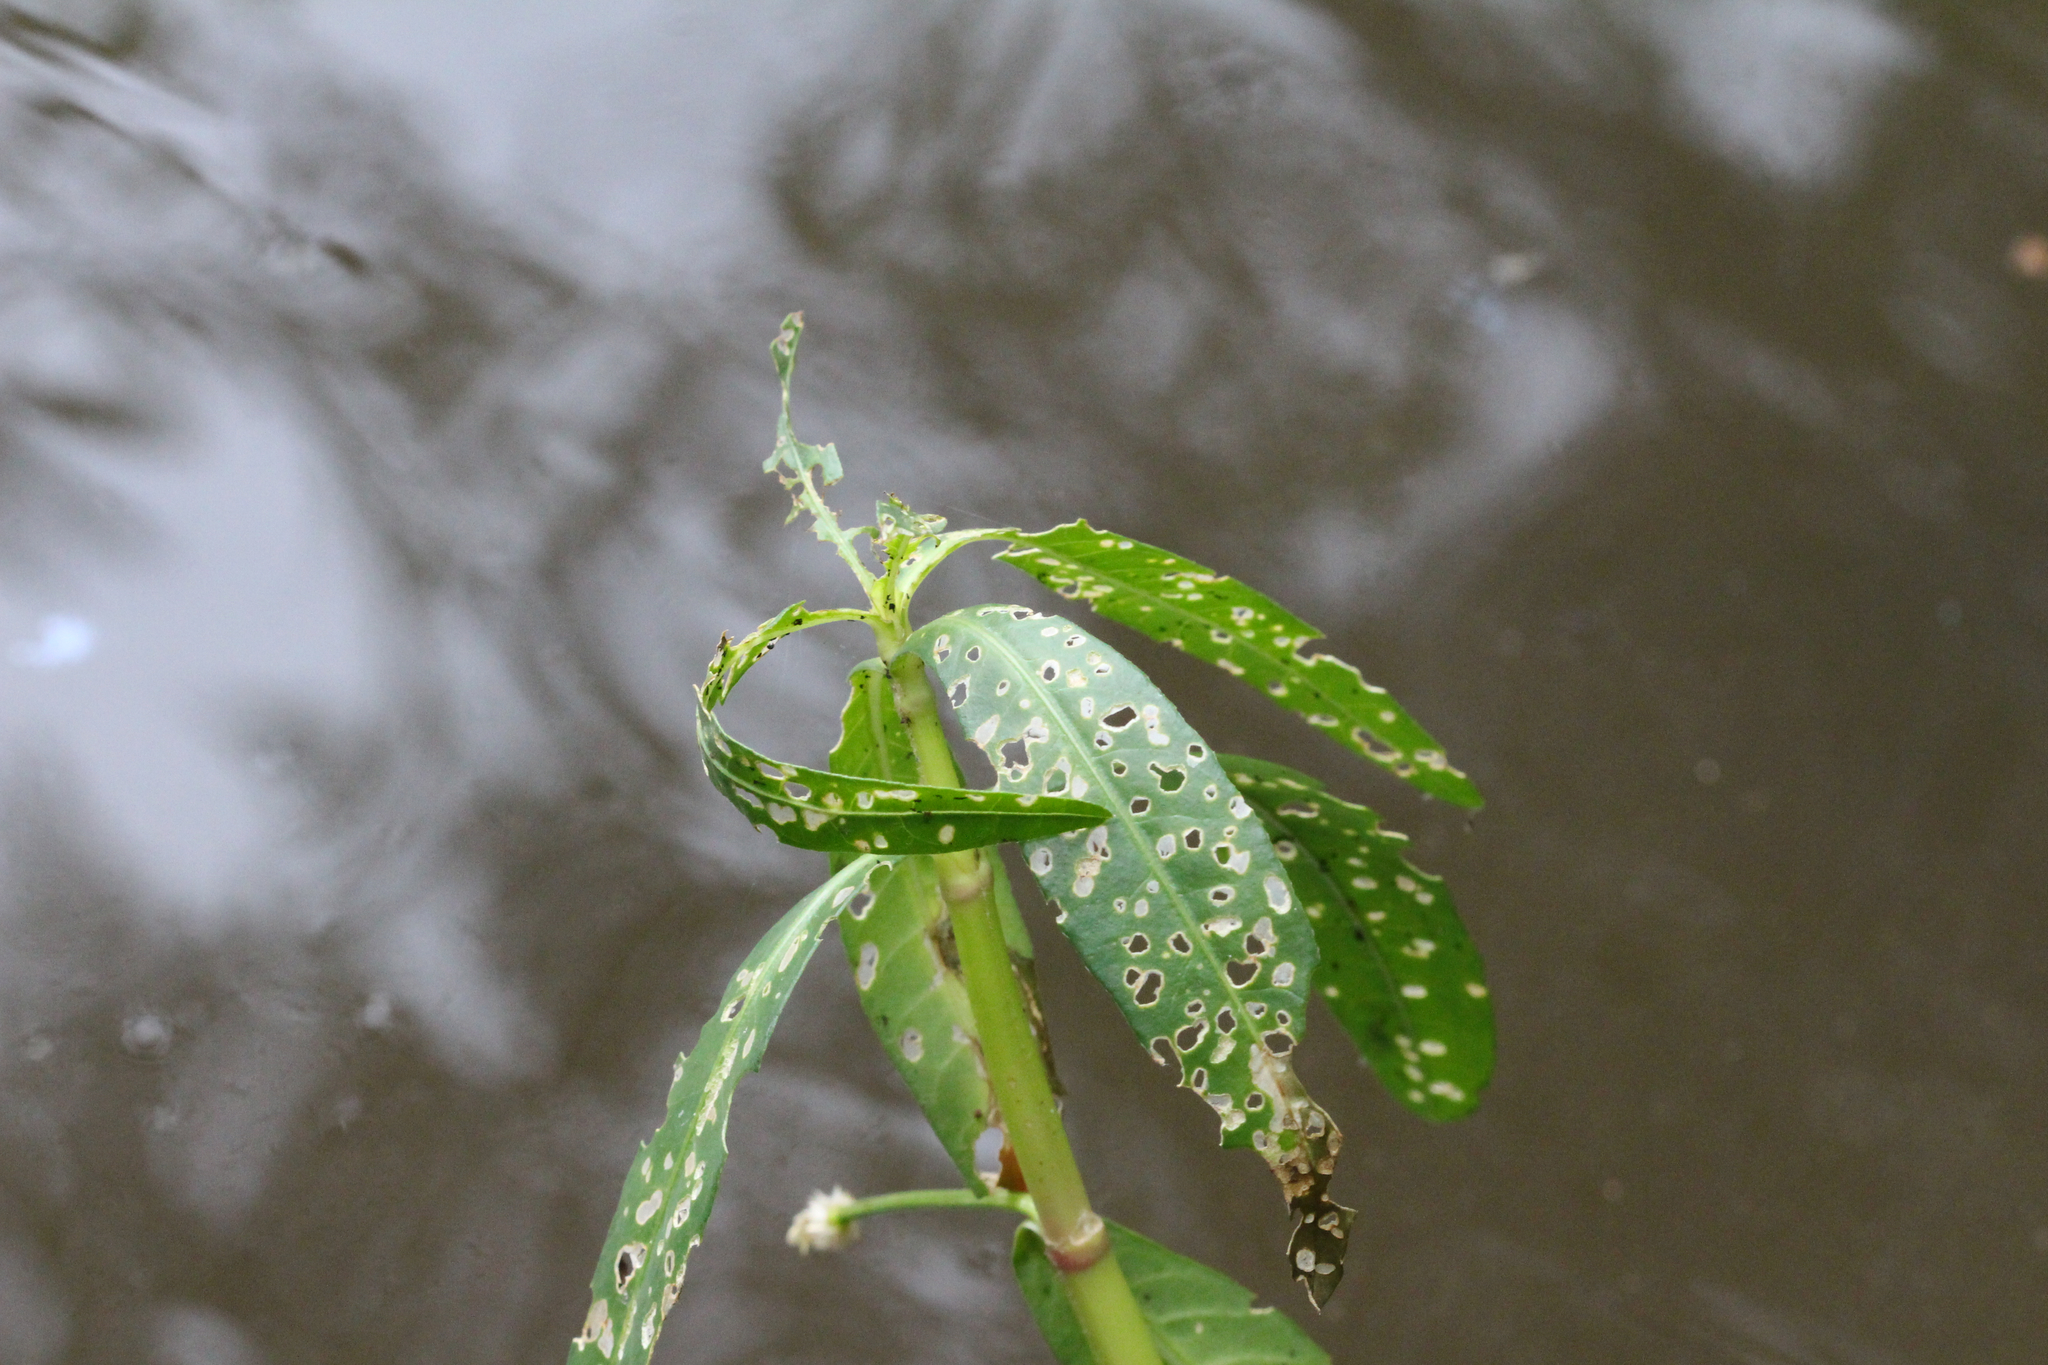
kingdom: Plantae
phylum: Tracheophyta
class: Magnoliopsida
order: Caryophyllales
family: Amaranthaceae
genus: Alternanthera
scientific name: Alternanthera philoxeroides
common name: Alligatorweed
